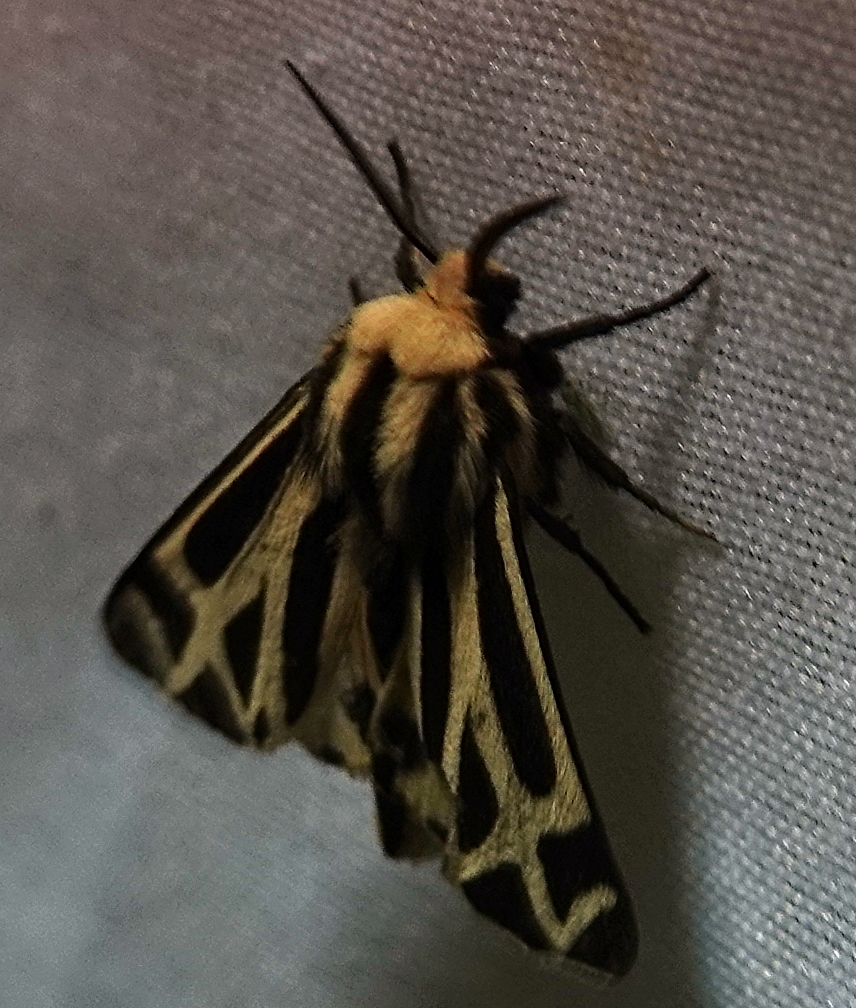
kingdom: Animalia
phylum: Arthropoda
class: Insecta
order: Lepidoptera
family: Erebidae
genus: Apantesis
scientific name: Apantesis carlotta
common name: Carlotta's tiger moth
